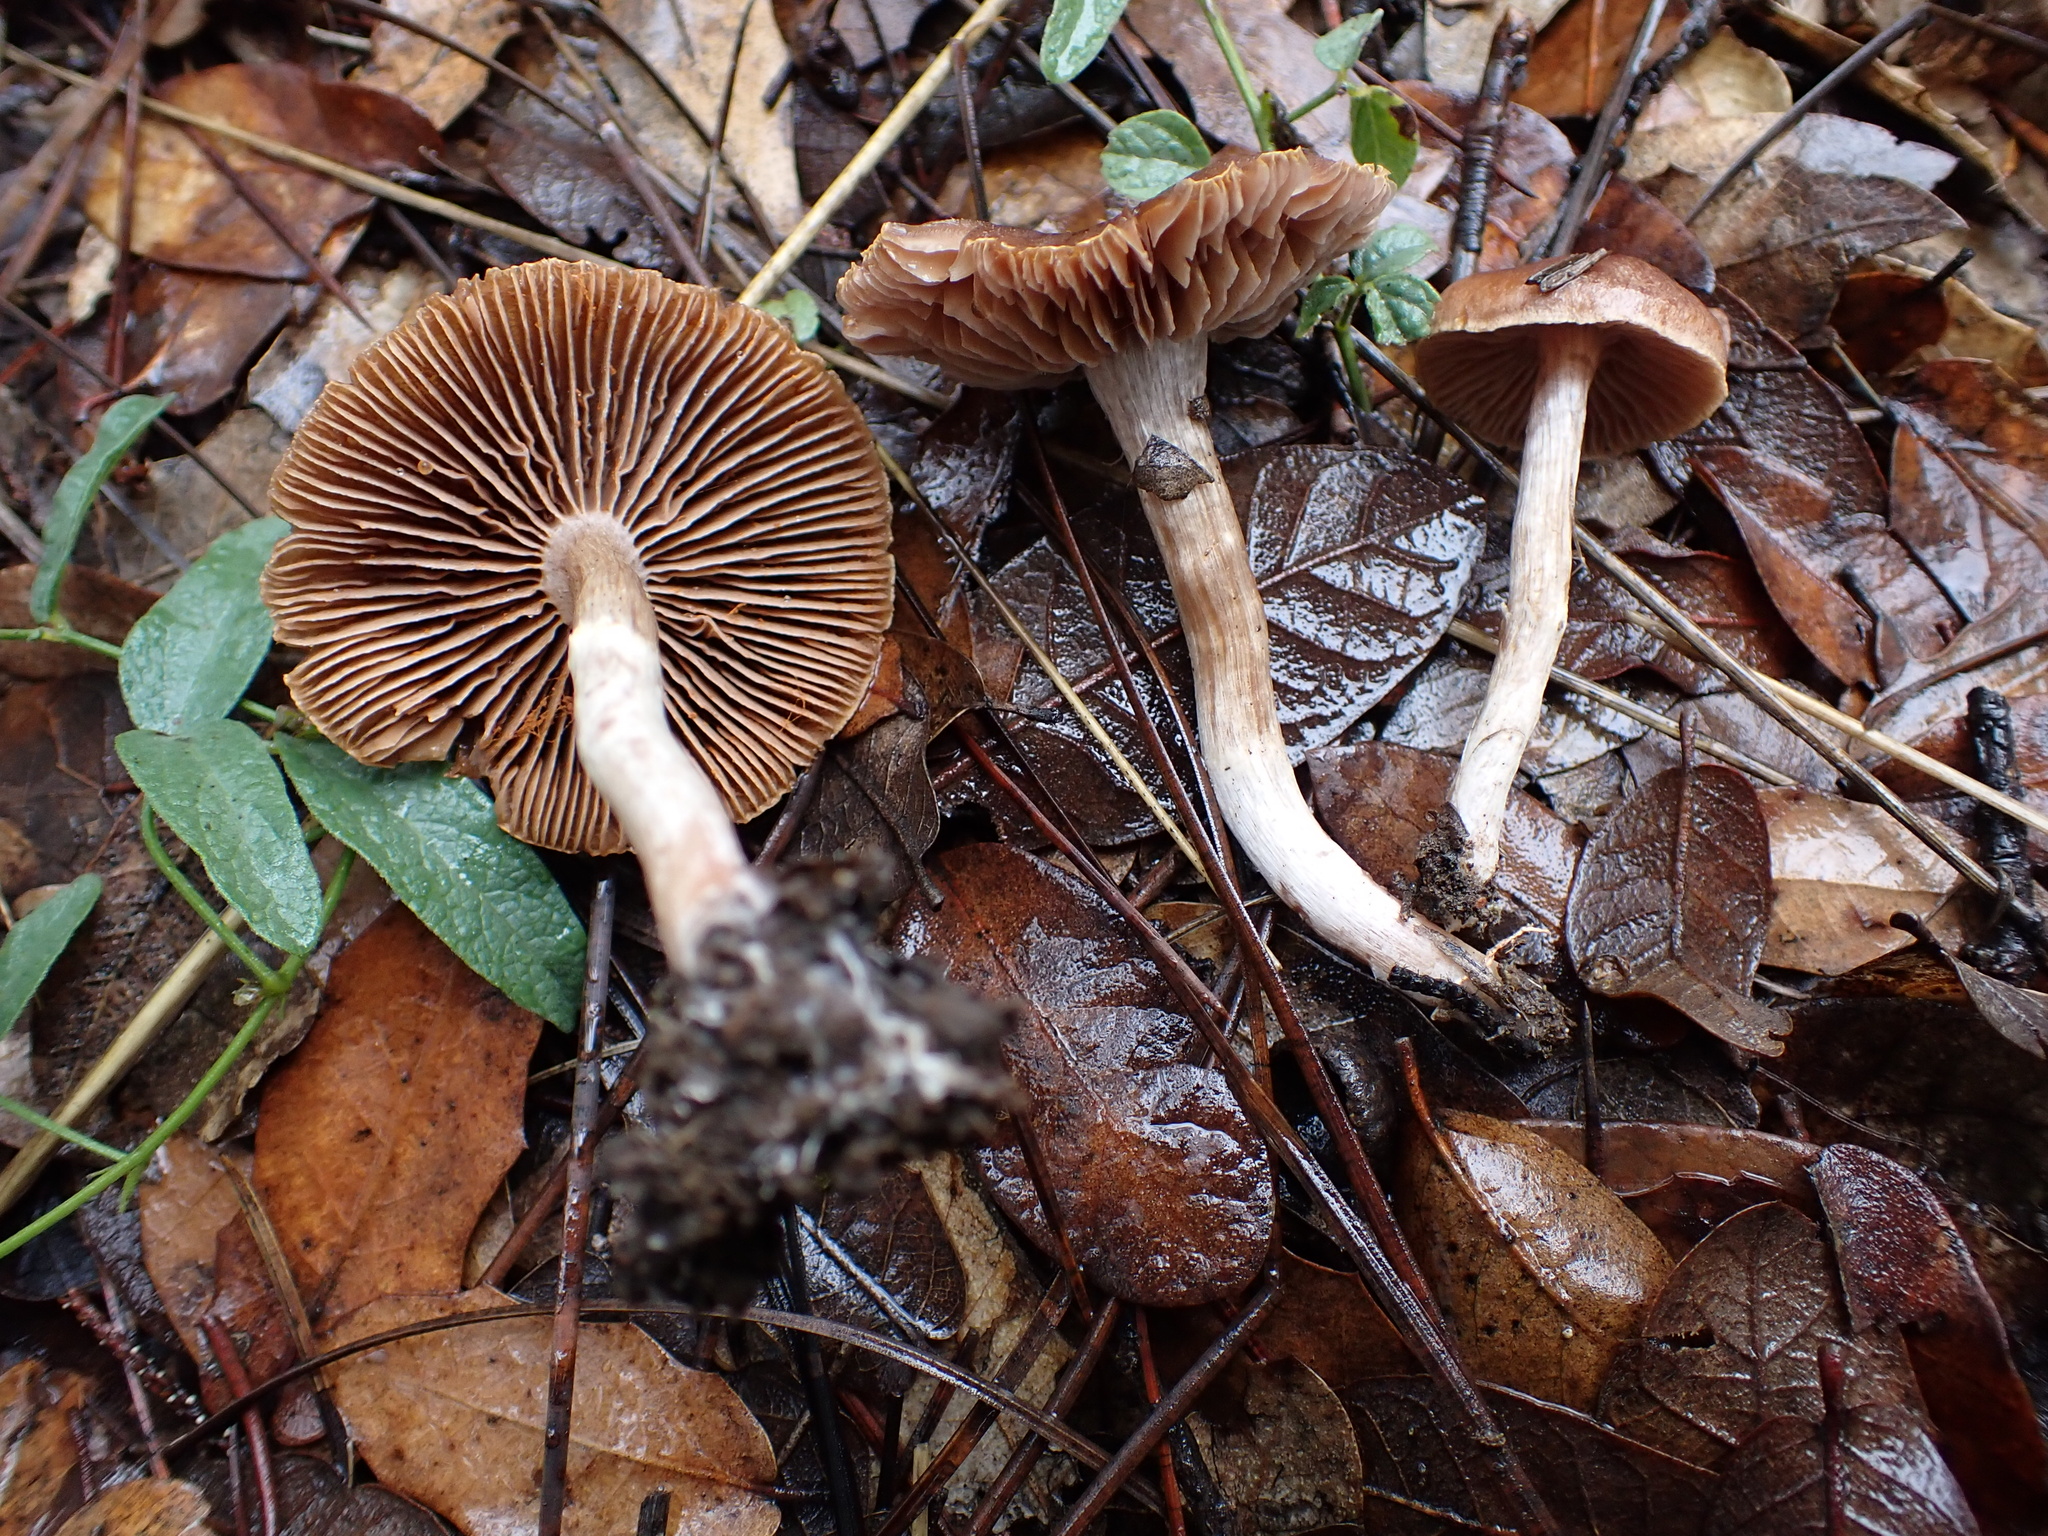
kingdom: Fungi
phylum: Basidiomycota
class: Agaricomycetes
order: Agaricales
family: Cortinariaceae
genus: Cortinarius
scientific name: Cortinarius subturibulosus
